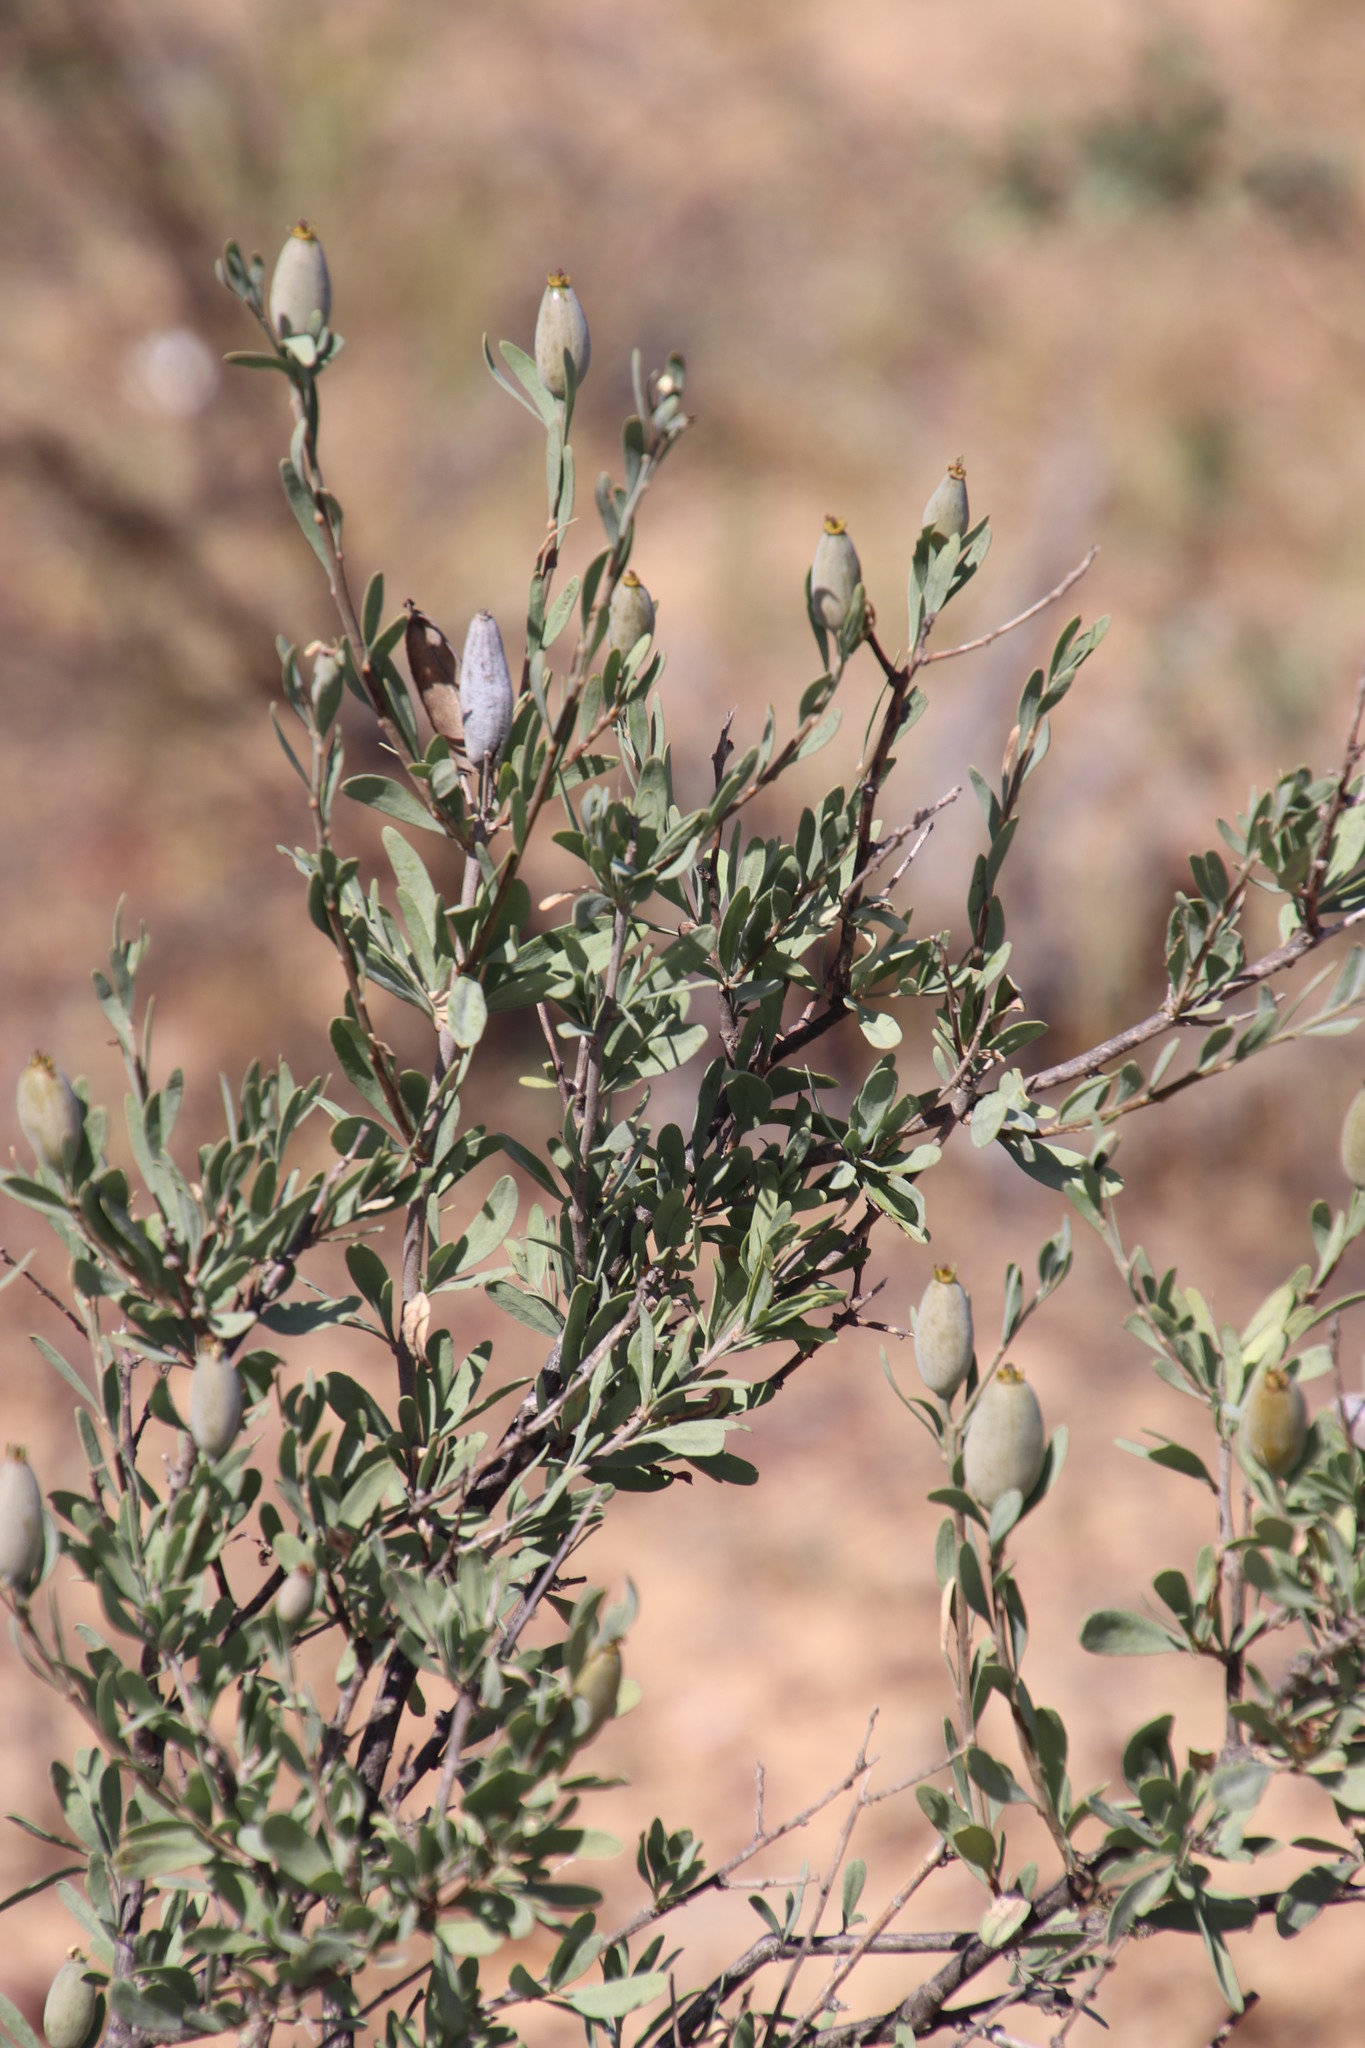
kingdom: Plantae
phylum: Tracheophyta
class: Magnoliopsida
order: Solanales
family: Montiniaceae
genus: Montinia
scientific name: Montinia caryophyllacea
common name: Wild clove-bush
